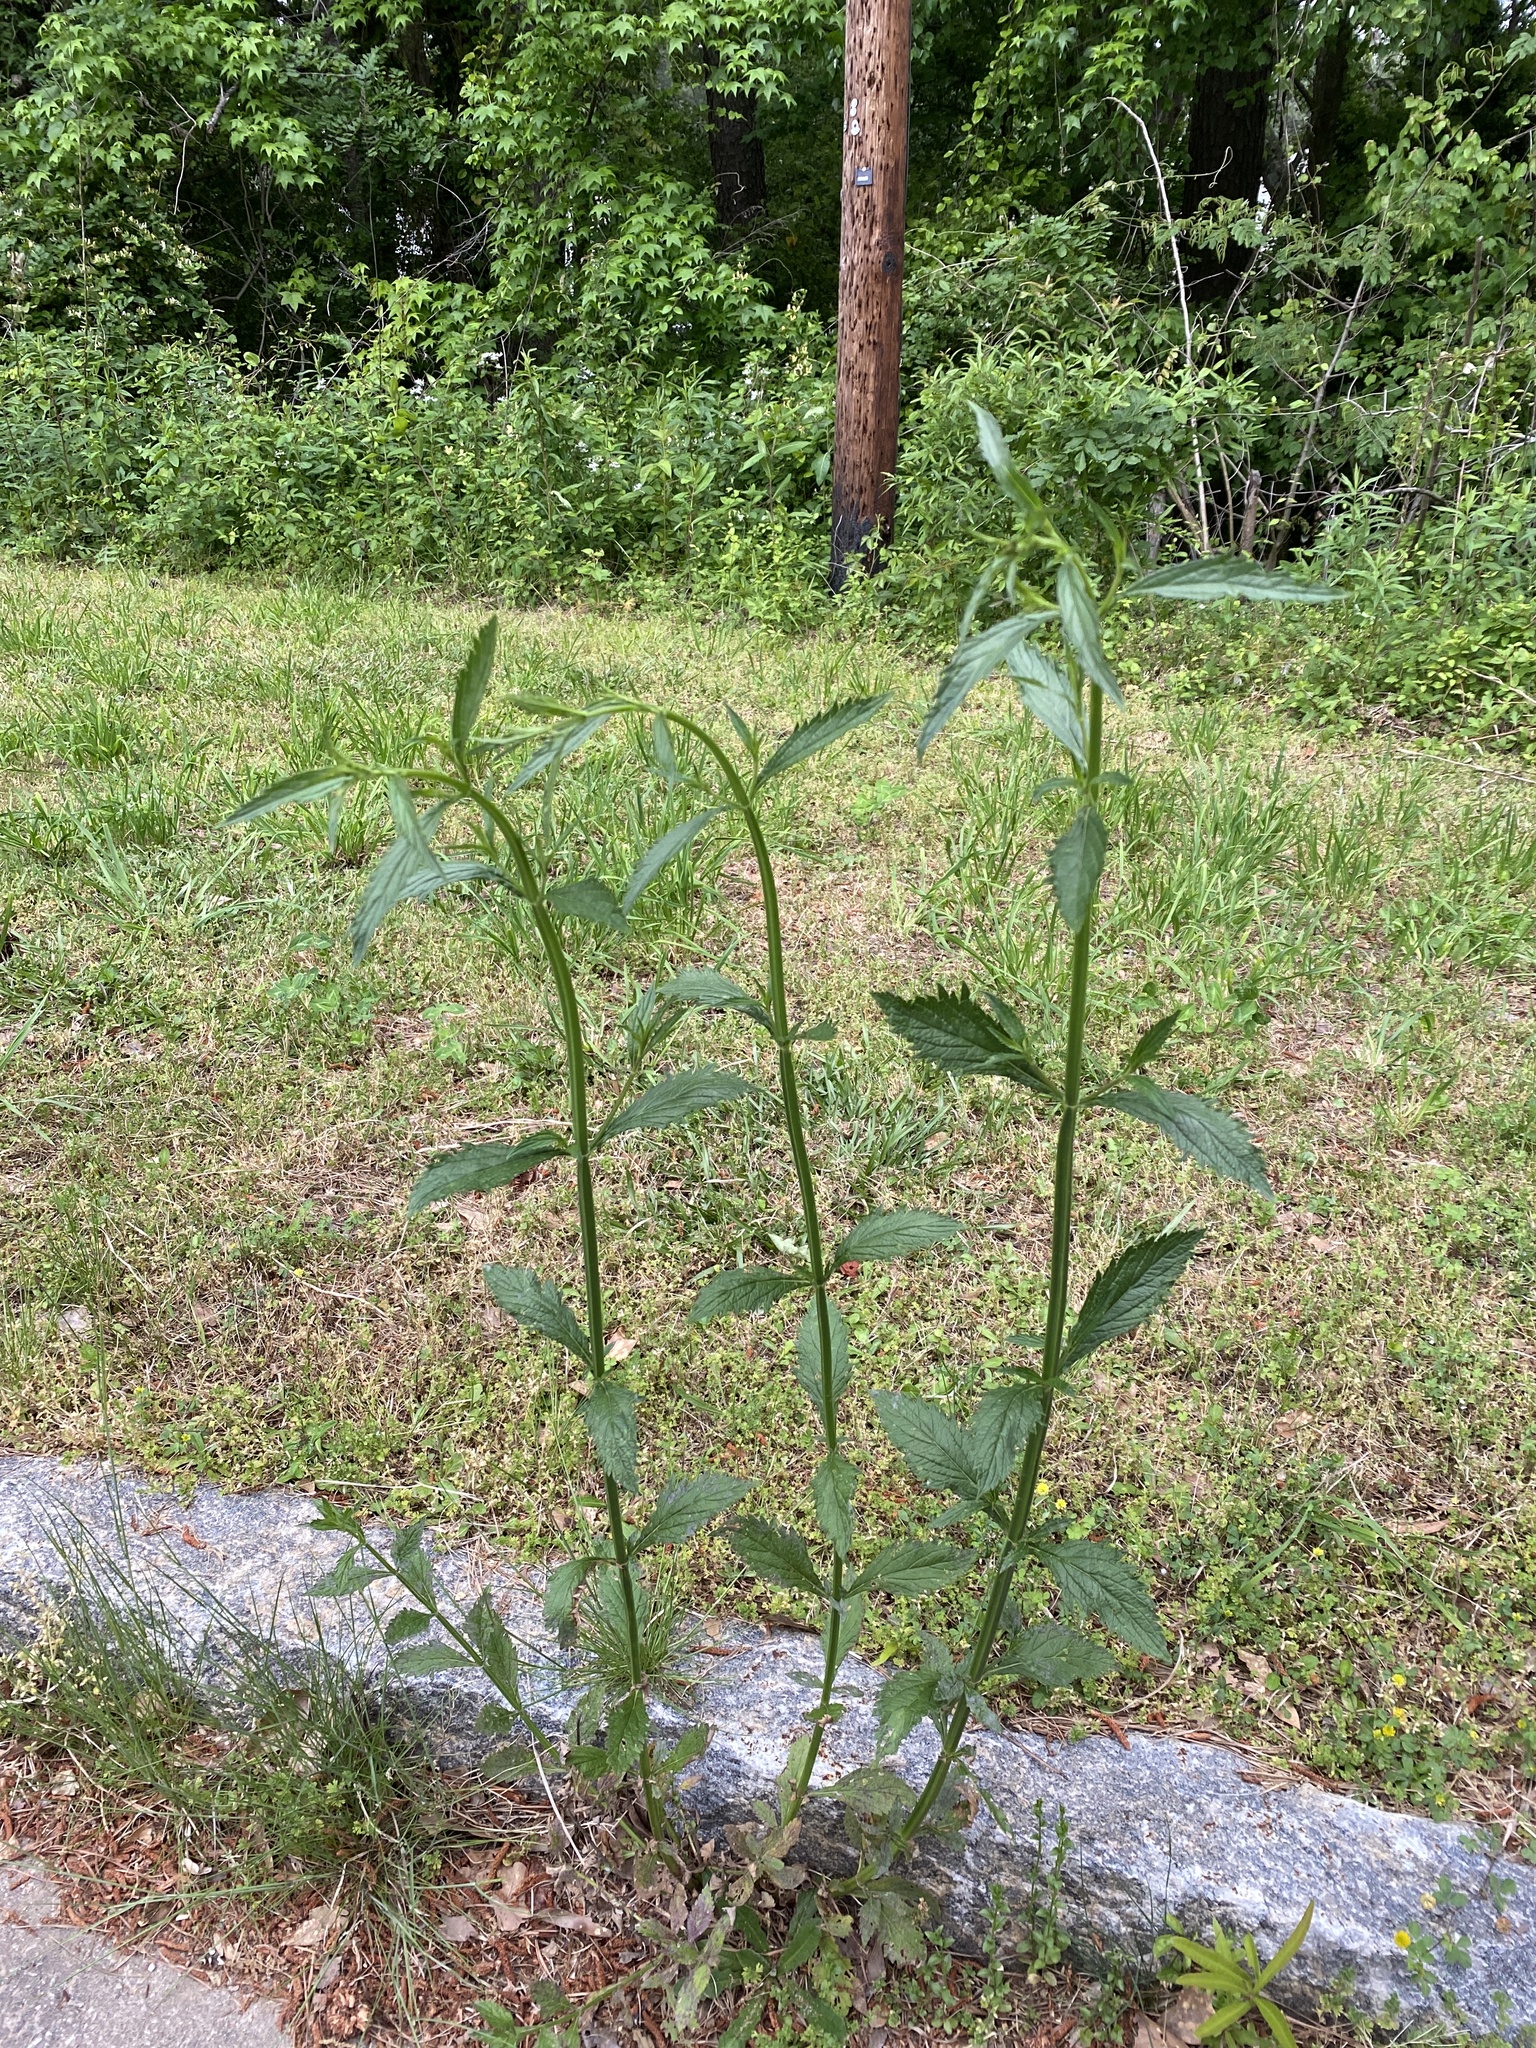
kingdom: Plantae
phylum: Tracheophyta
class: Magnoliopsida
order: Lamiales
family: Verbenaceae
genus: Verbena
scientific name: Verbena brasiliensis
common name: Brazilian vervain
